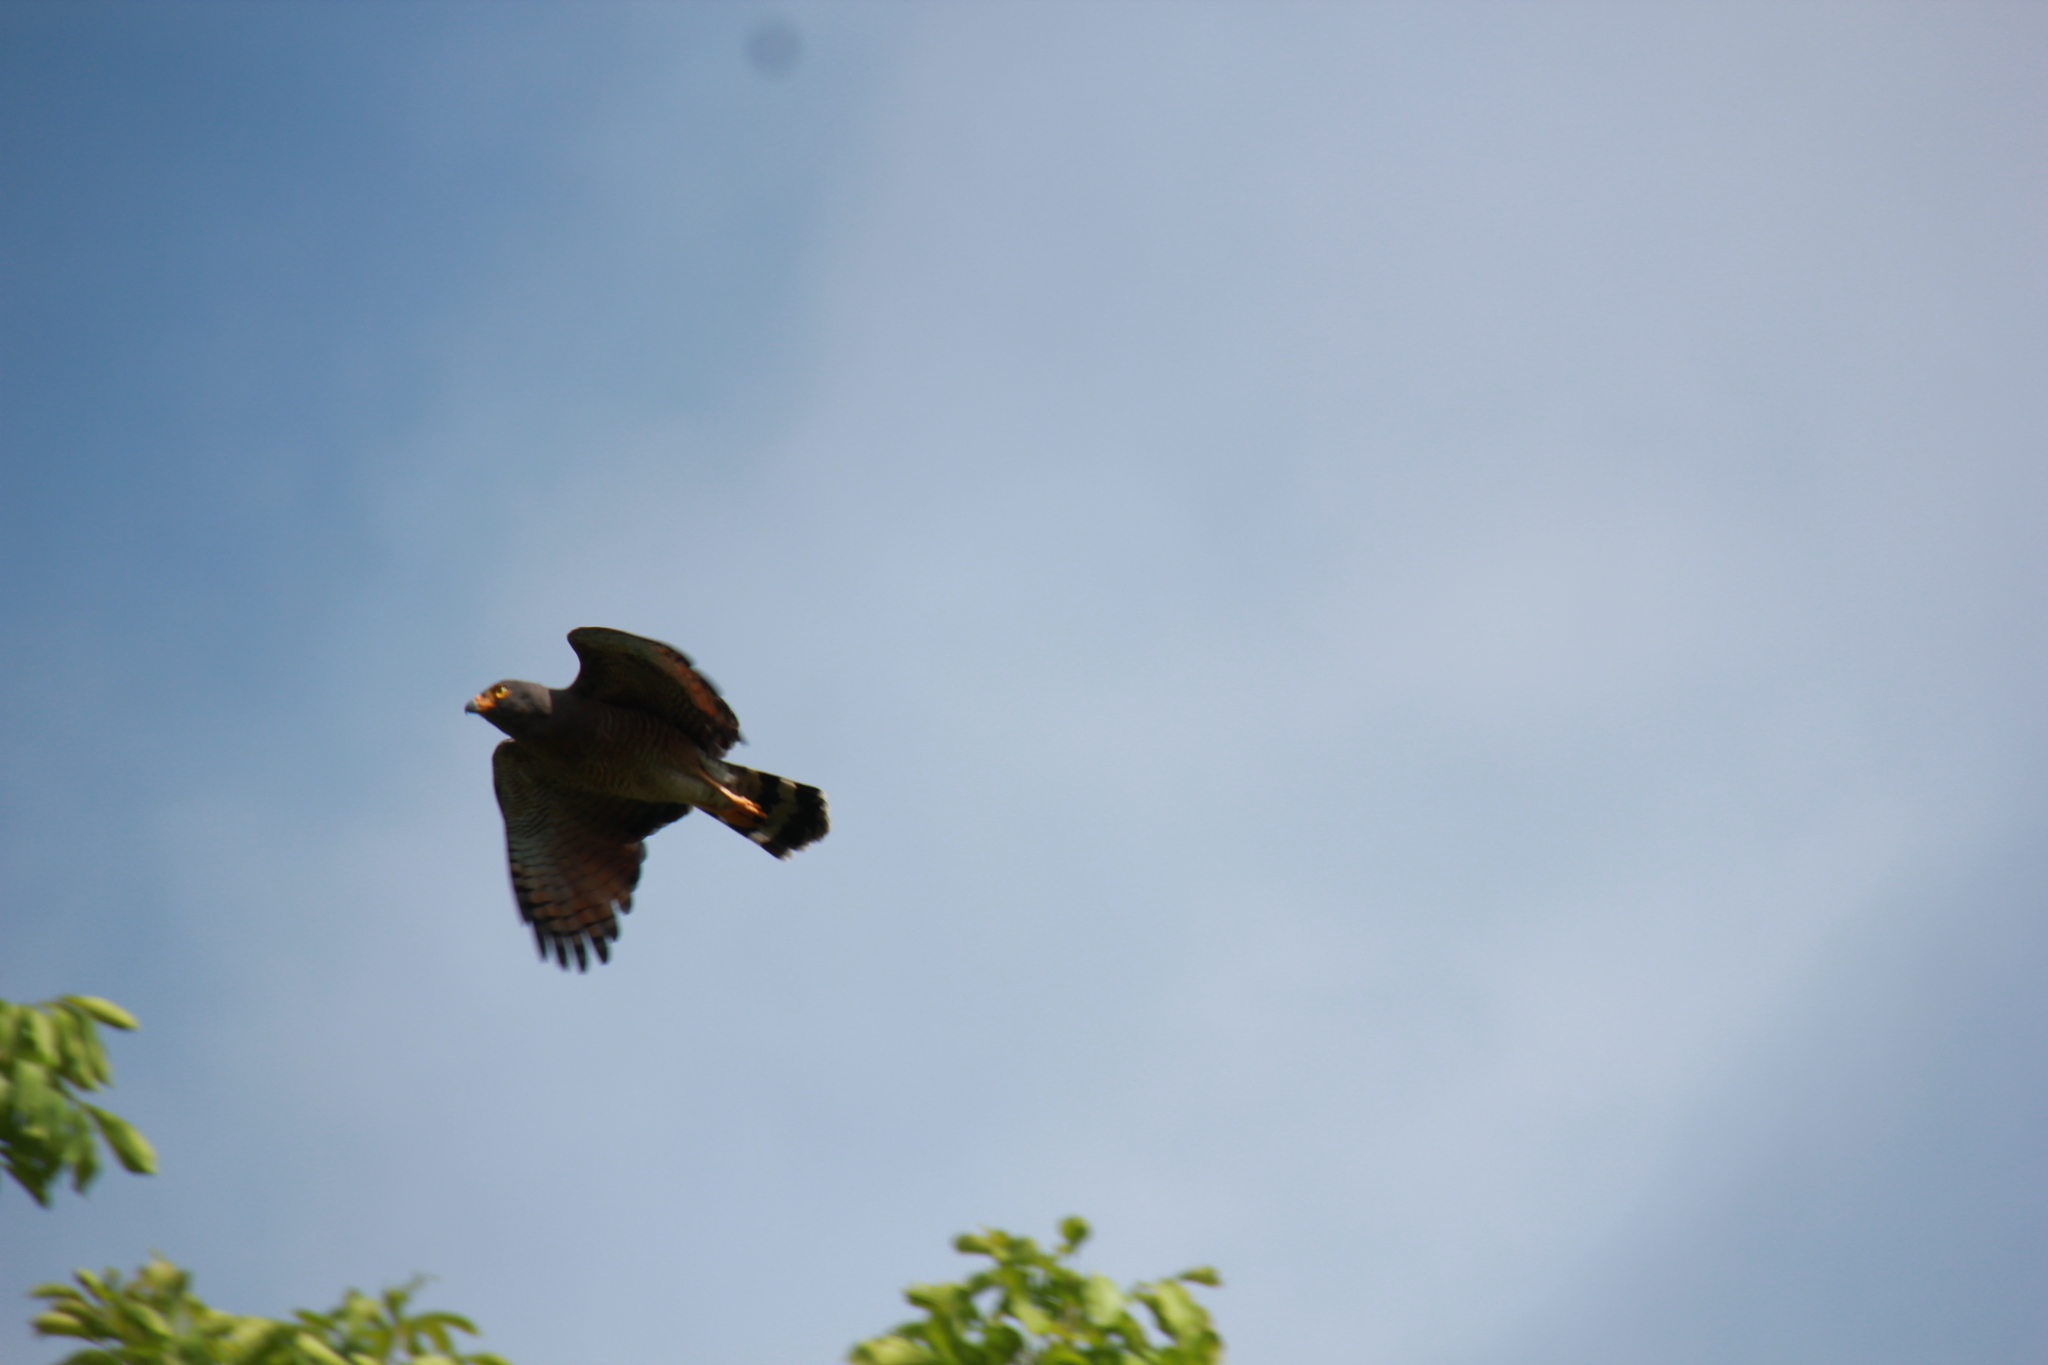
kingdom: Animalia
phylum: Chordata
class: Aves
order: Accipitriformes
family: Accipitridae
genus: Rupornis
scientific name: Rupornis magnirostris
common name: Roadside hawk
